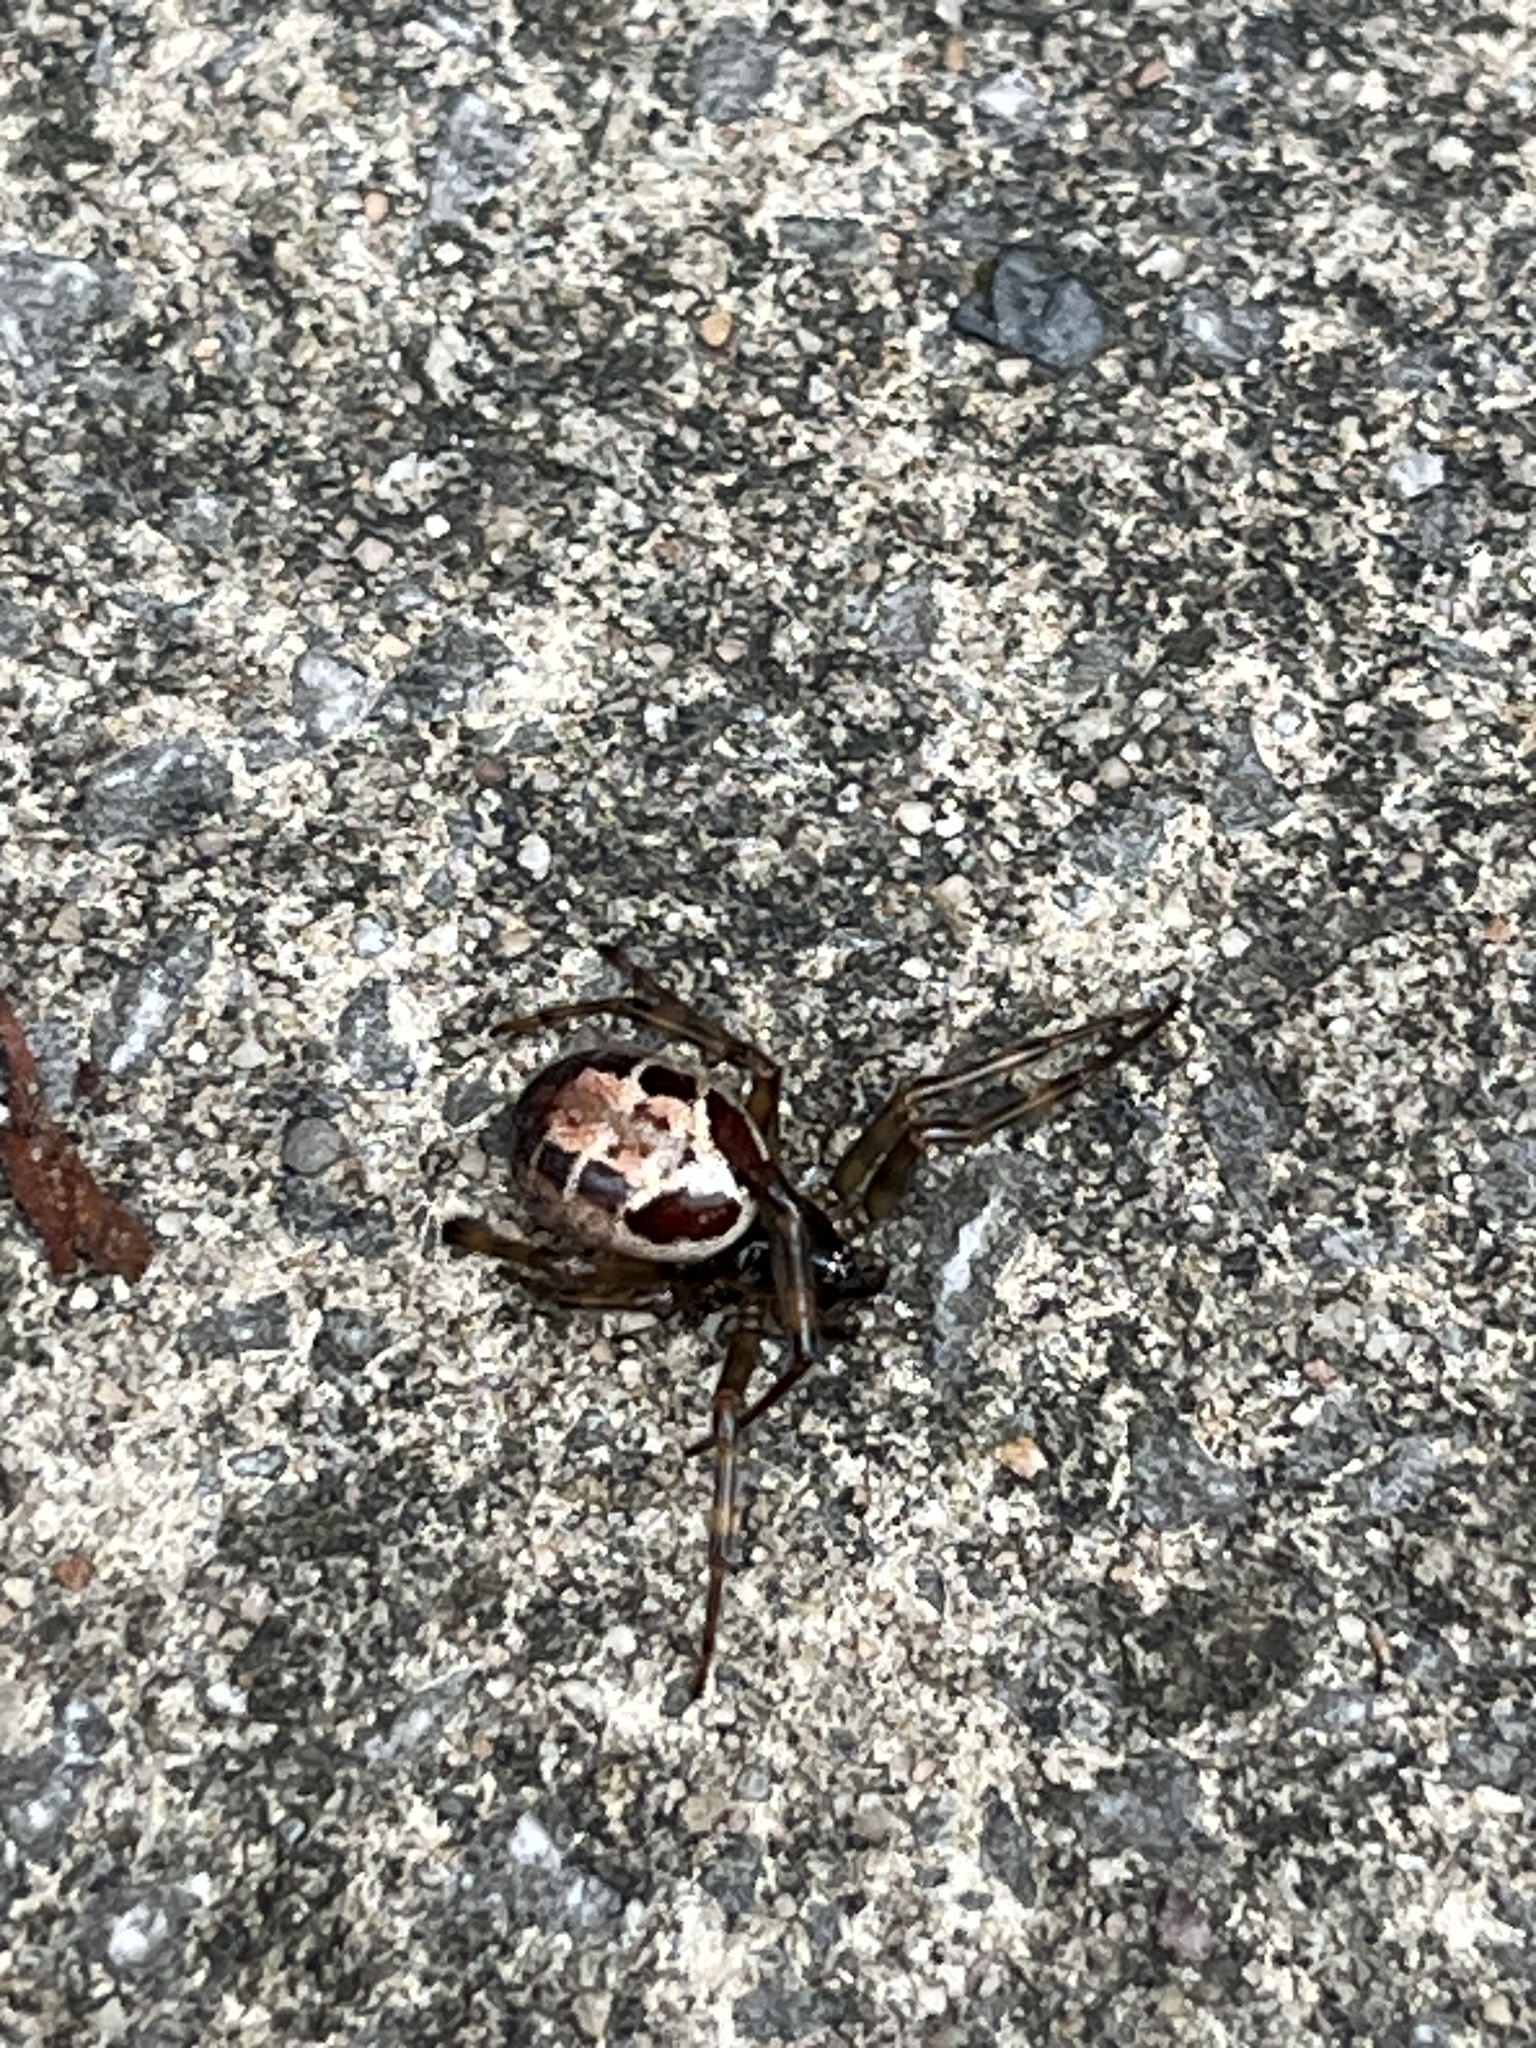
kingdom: Animalia
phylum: Arthropoda
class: Arachnida
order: Araneae
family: Theridiidae
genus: Steatoda
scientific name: Steatoda nobilis
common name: Cobweb weaver
